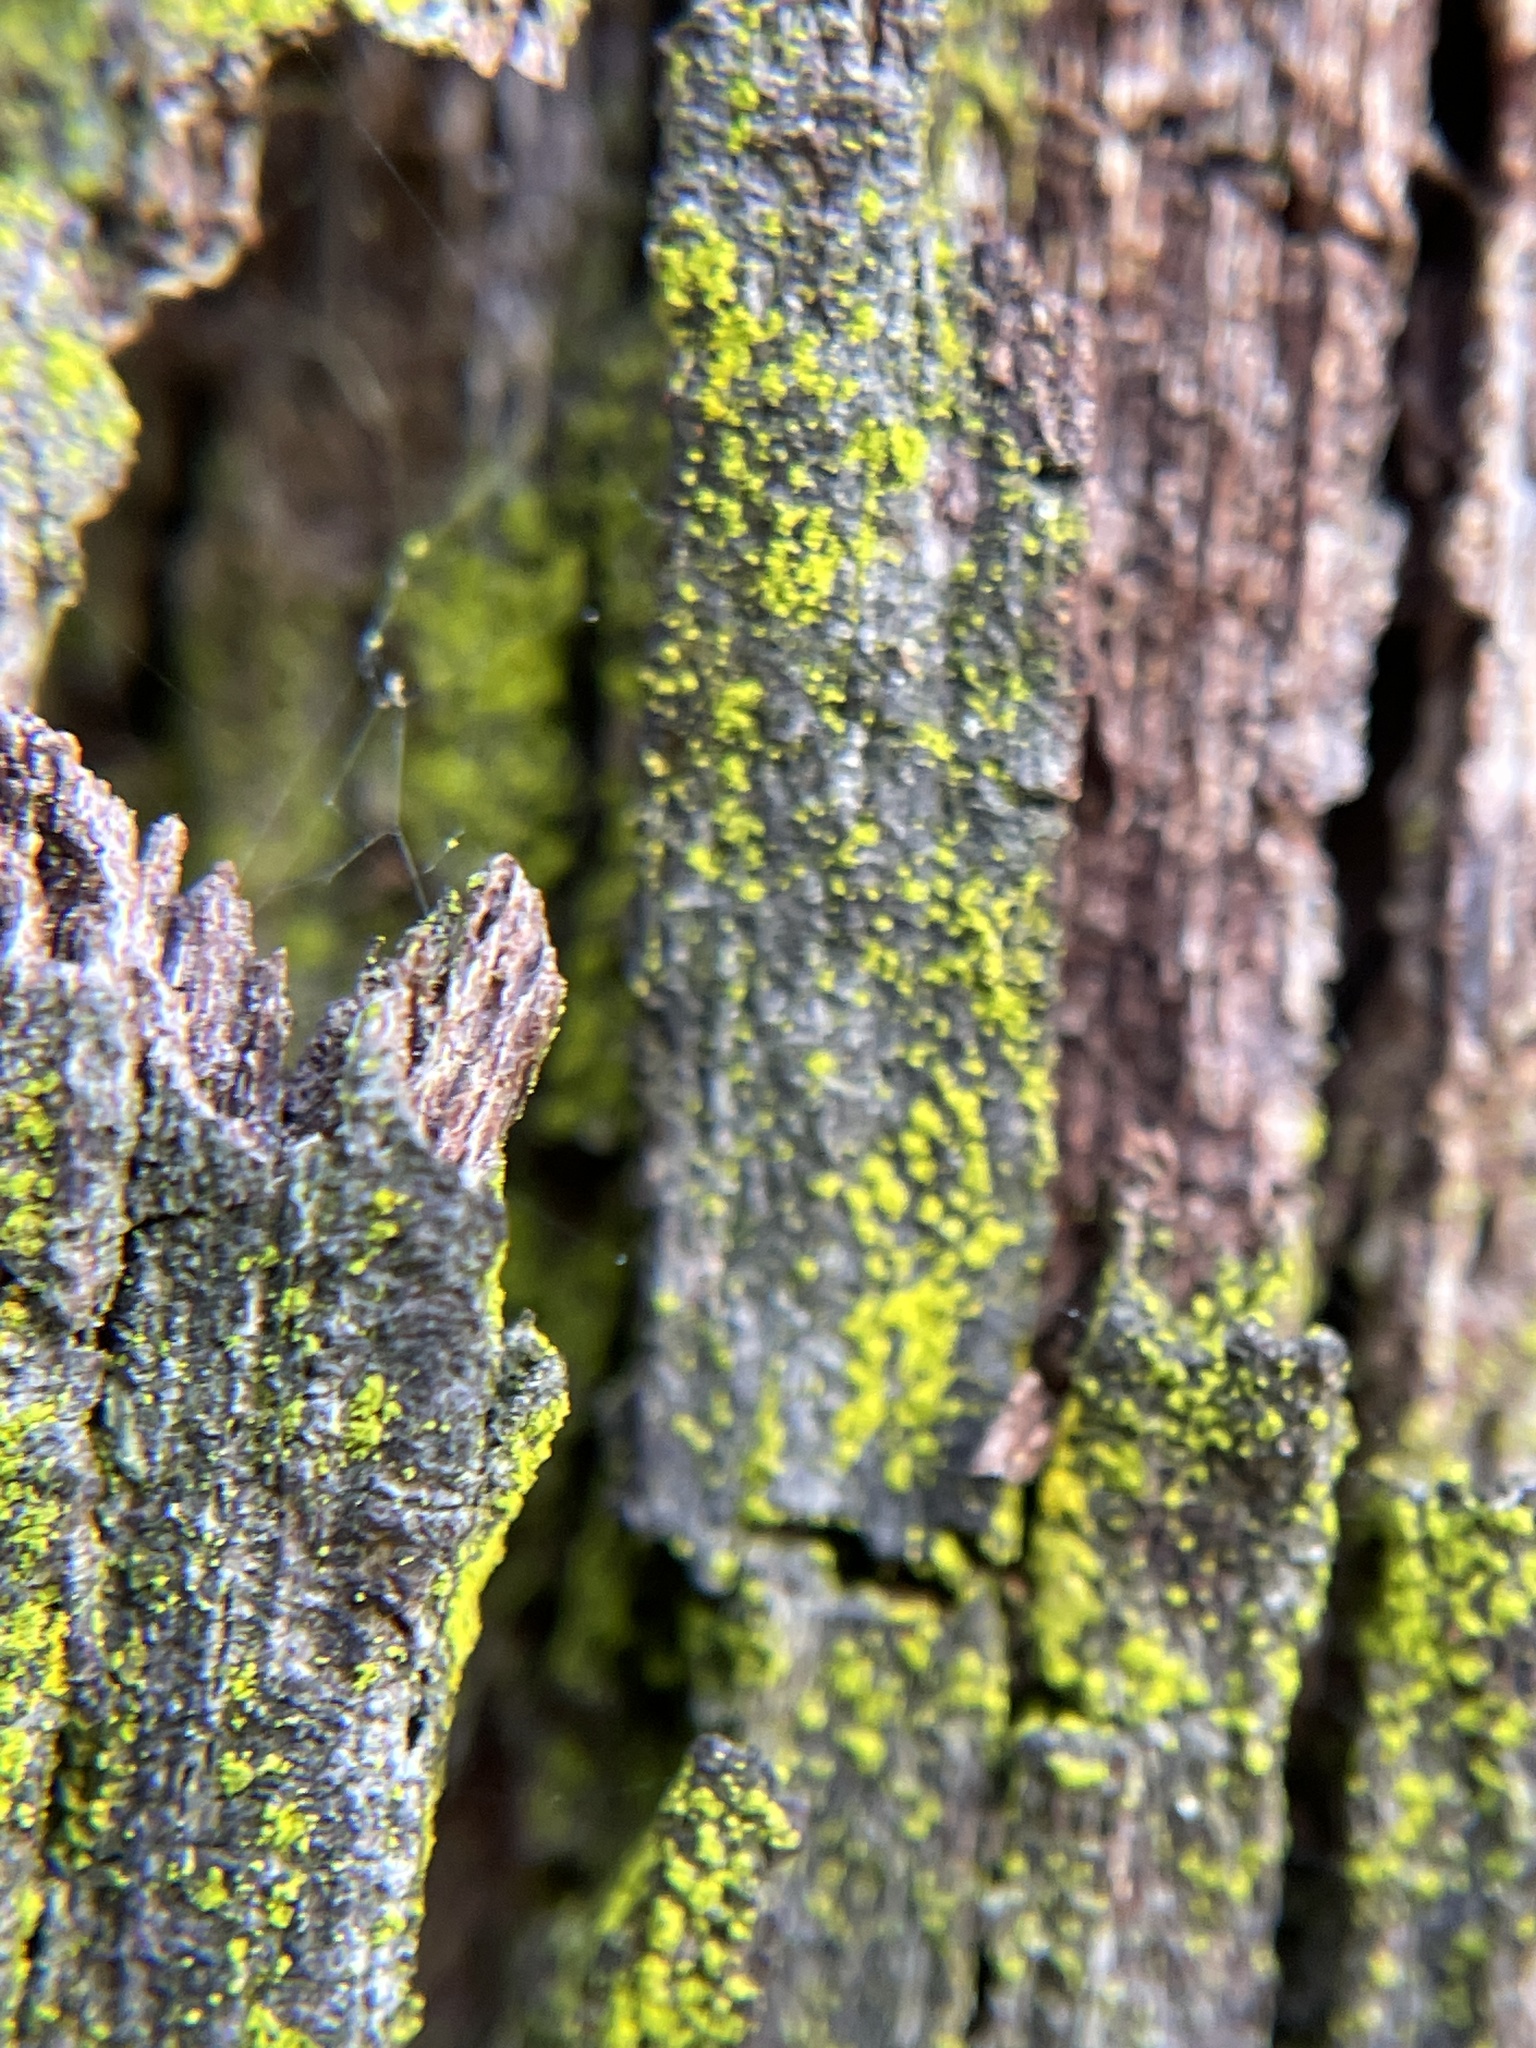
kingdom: Fungi
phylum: Ascomycota
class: Arthoniomycetes
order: Arthoniales
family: Chrysotrichaceae
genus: Chrysothrix
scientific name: Chrysothrix candelaris
